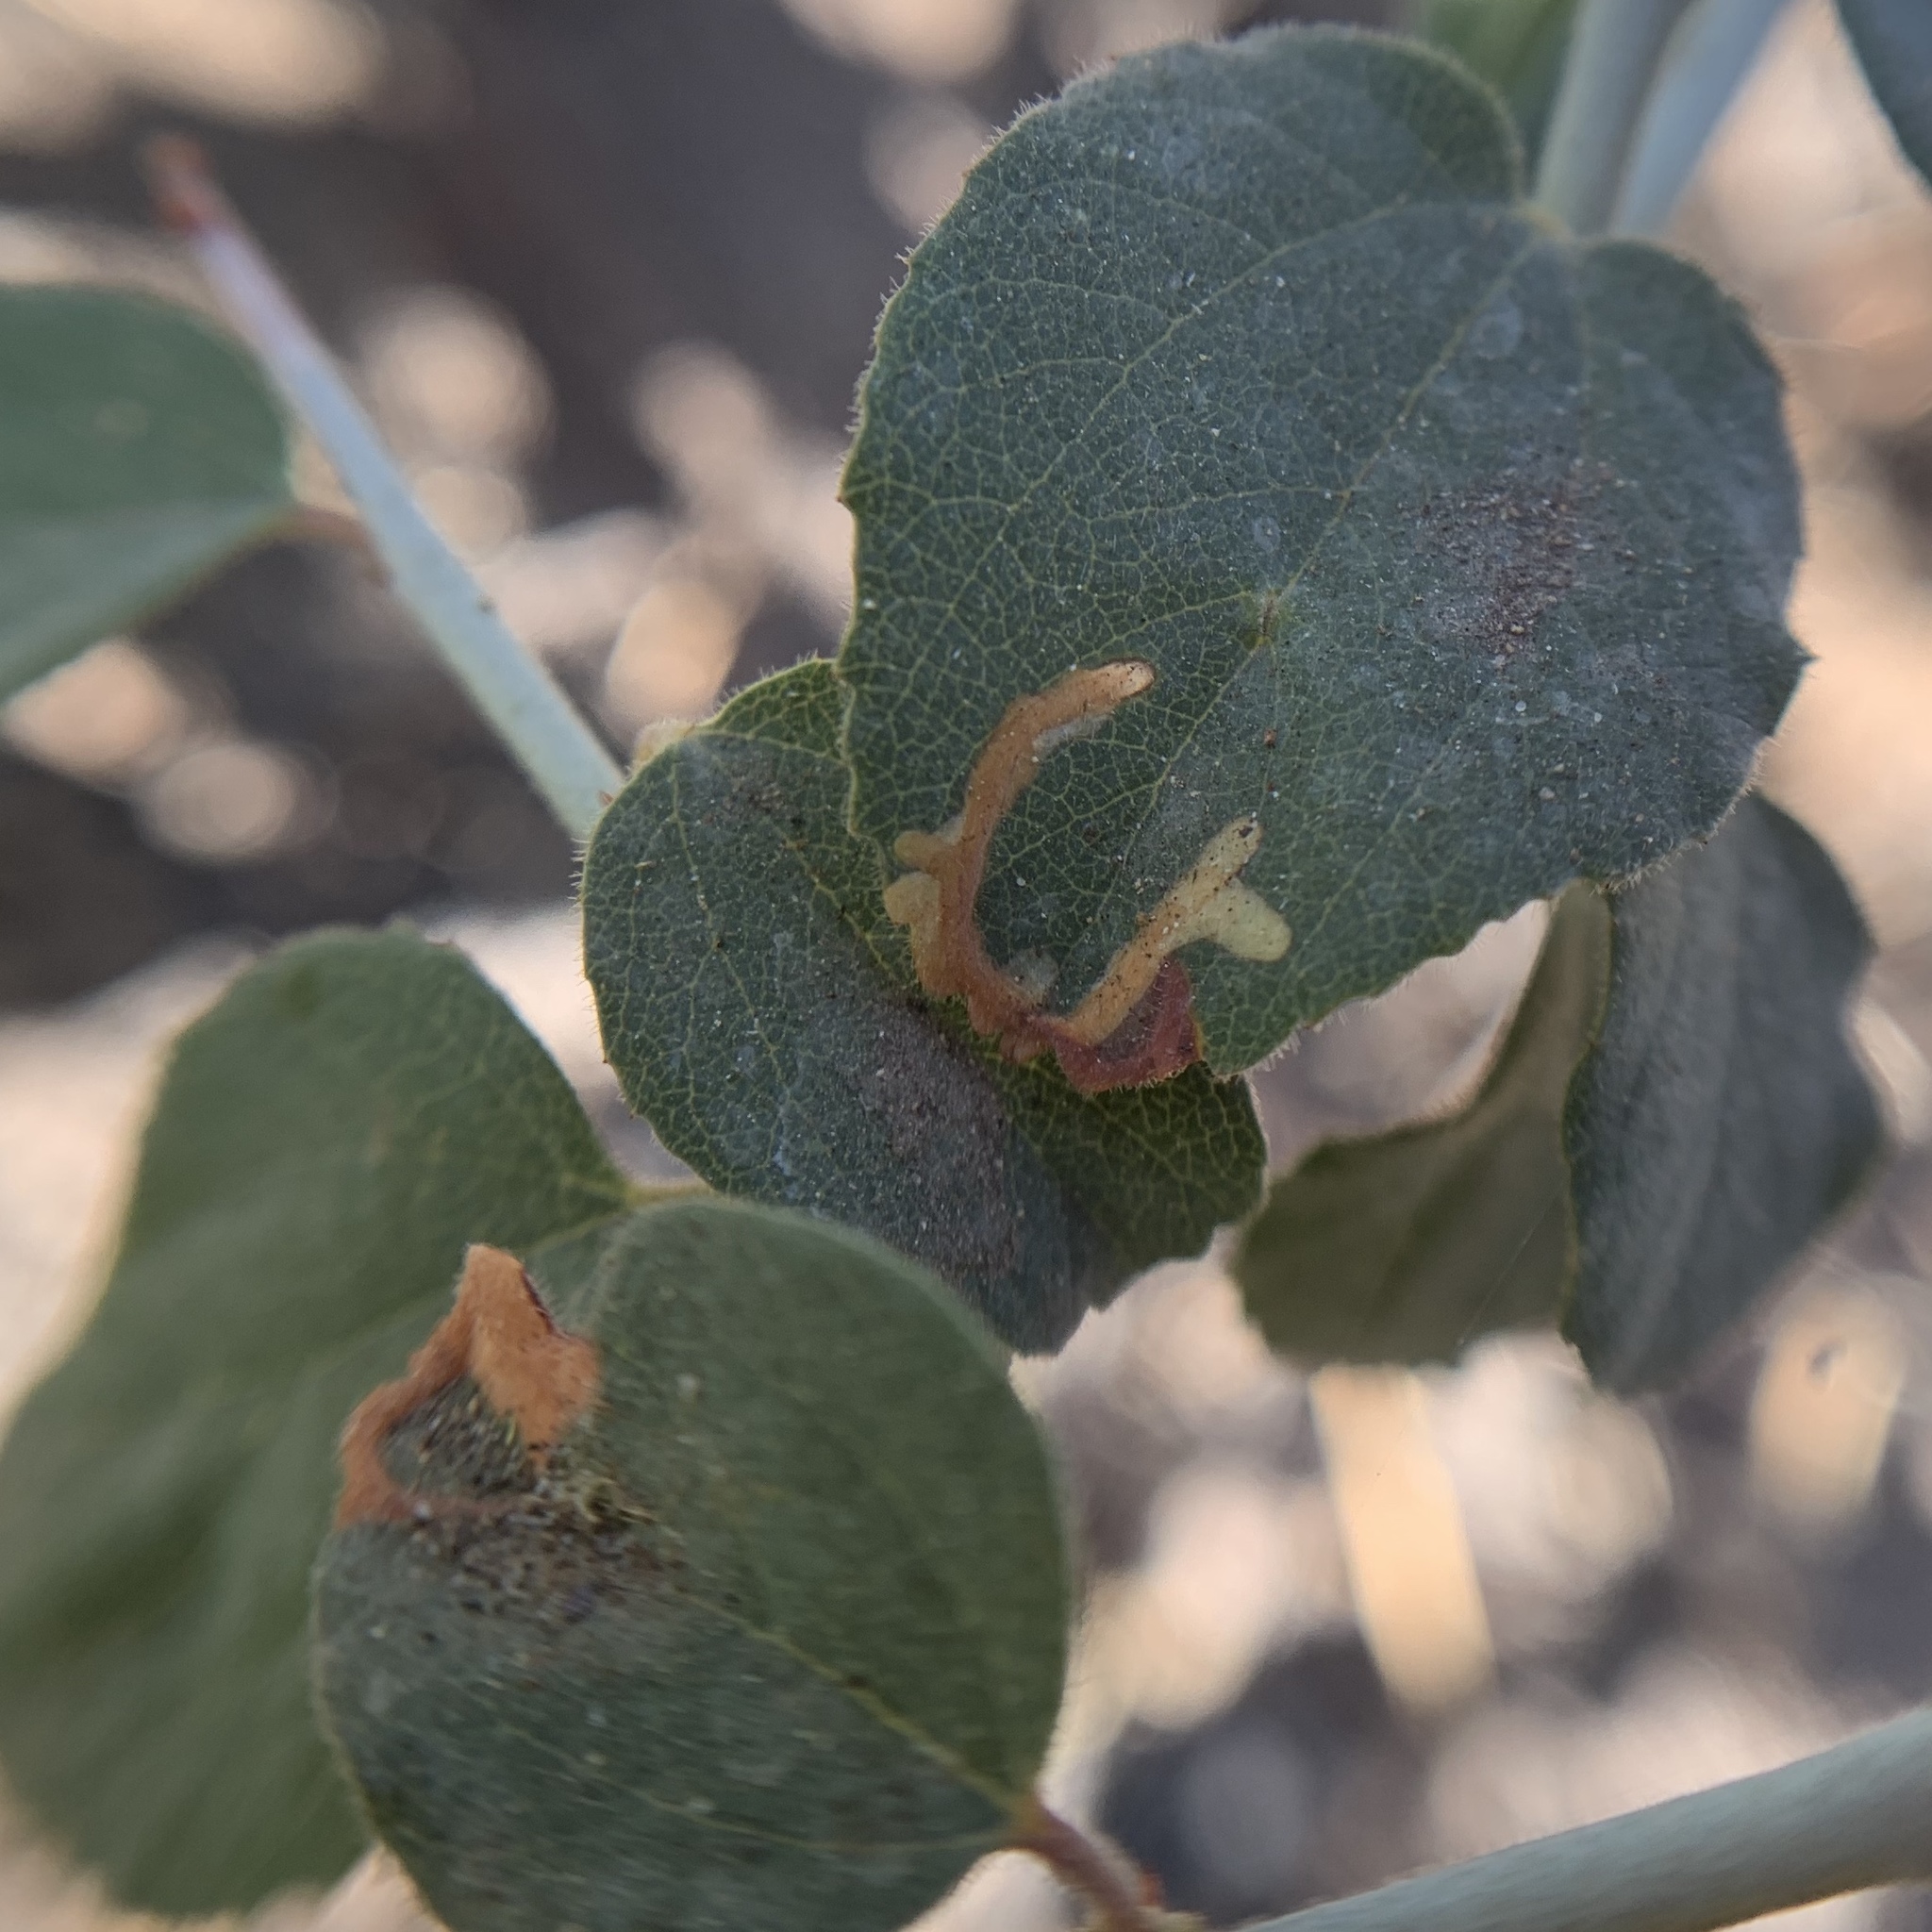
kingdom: Animalia
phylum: Arthropoda
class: Insecta
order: Lepidoptera
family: Gelechiidae
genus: Xenolechia
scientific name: Xenolechia ceanothiella
